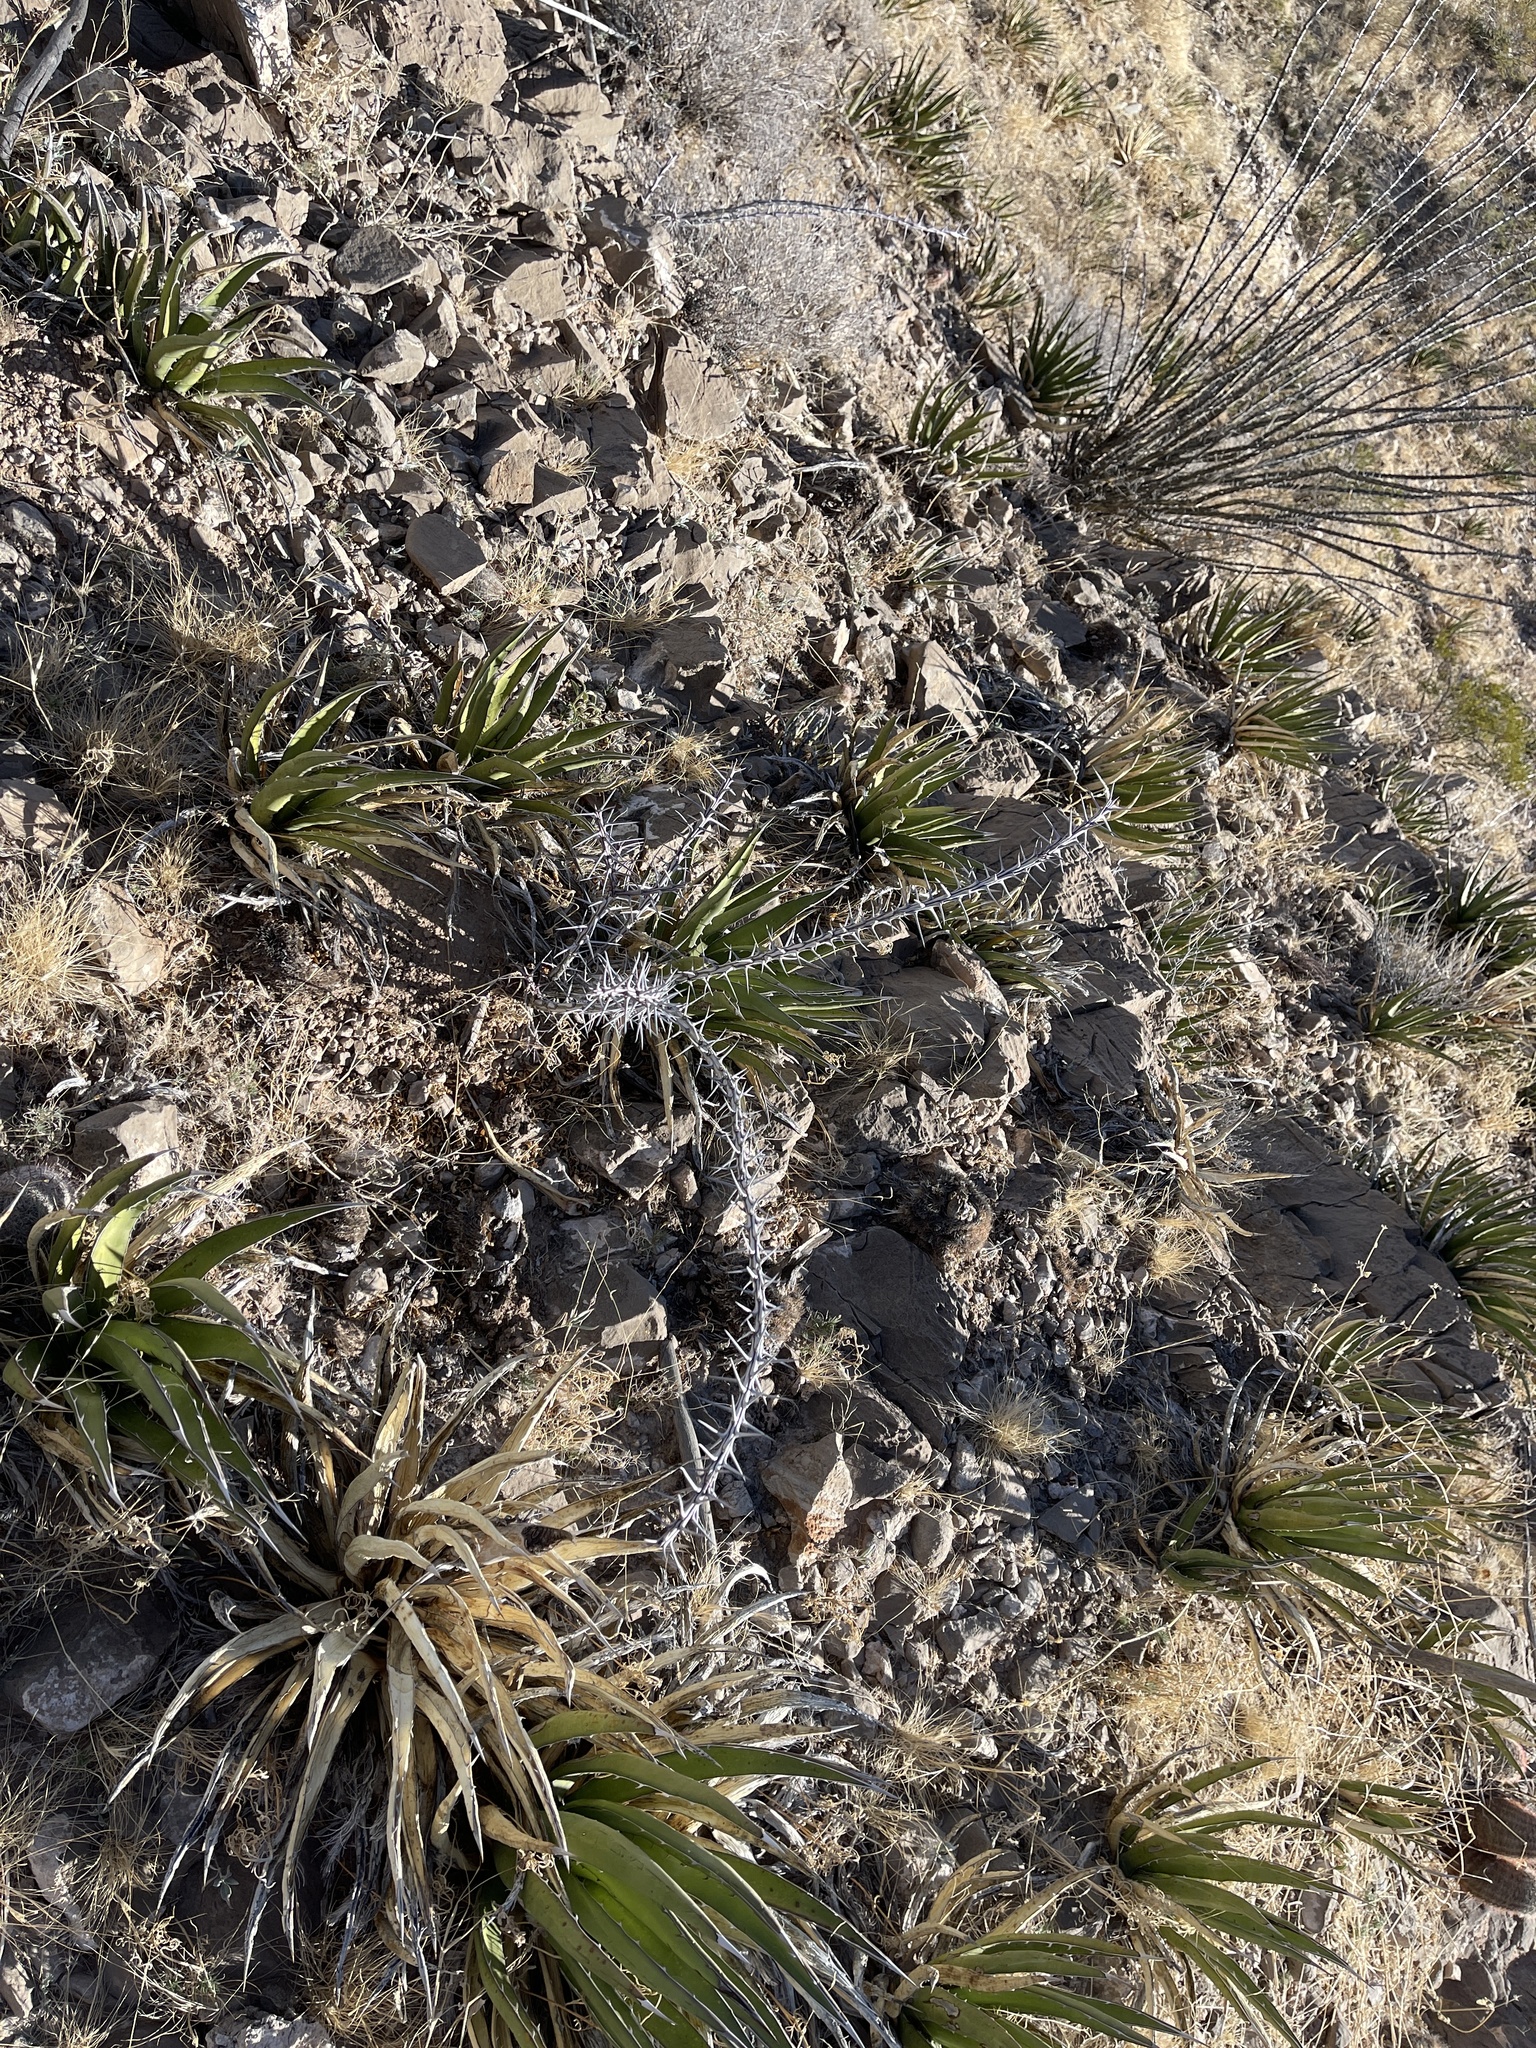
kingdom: Plantae
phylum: Tracheophyta
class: Magnoliopsida
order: Ericales
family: Fouquieriaceae
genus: Fouquieria
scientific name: Fouquieria splendens
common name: Vine-cactus
